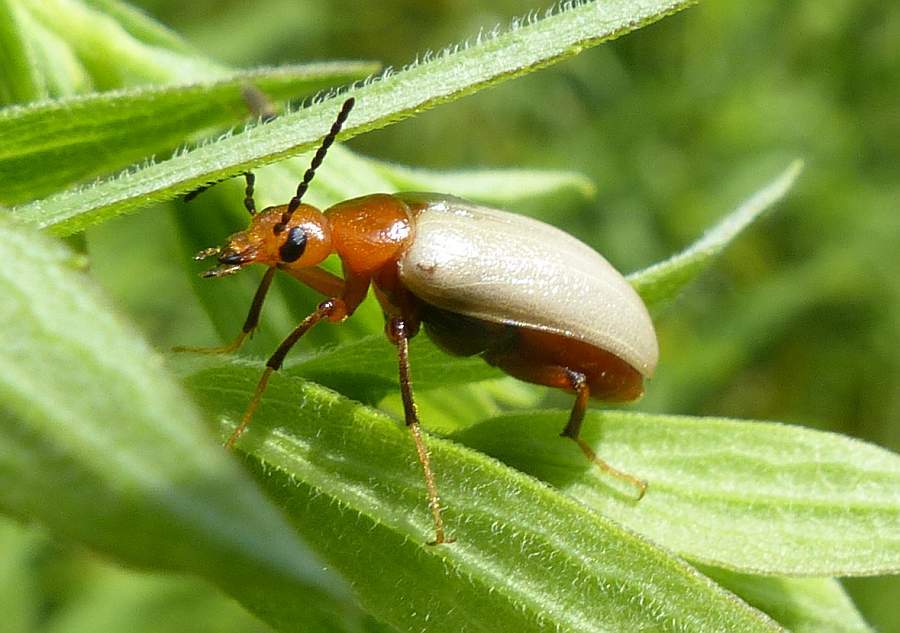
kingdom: Animalia
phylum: Arthropoda
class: Insecta
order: Coleoptera
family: Meloidae
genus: Zonitis
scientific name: Zonitis bilineata
